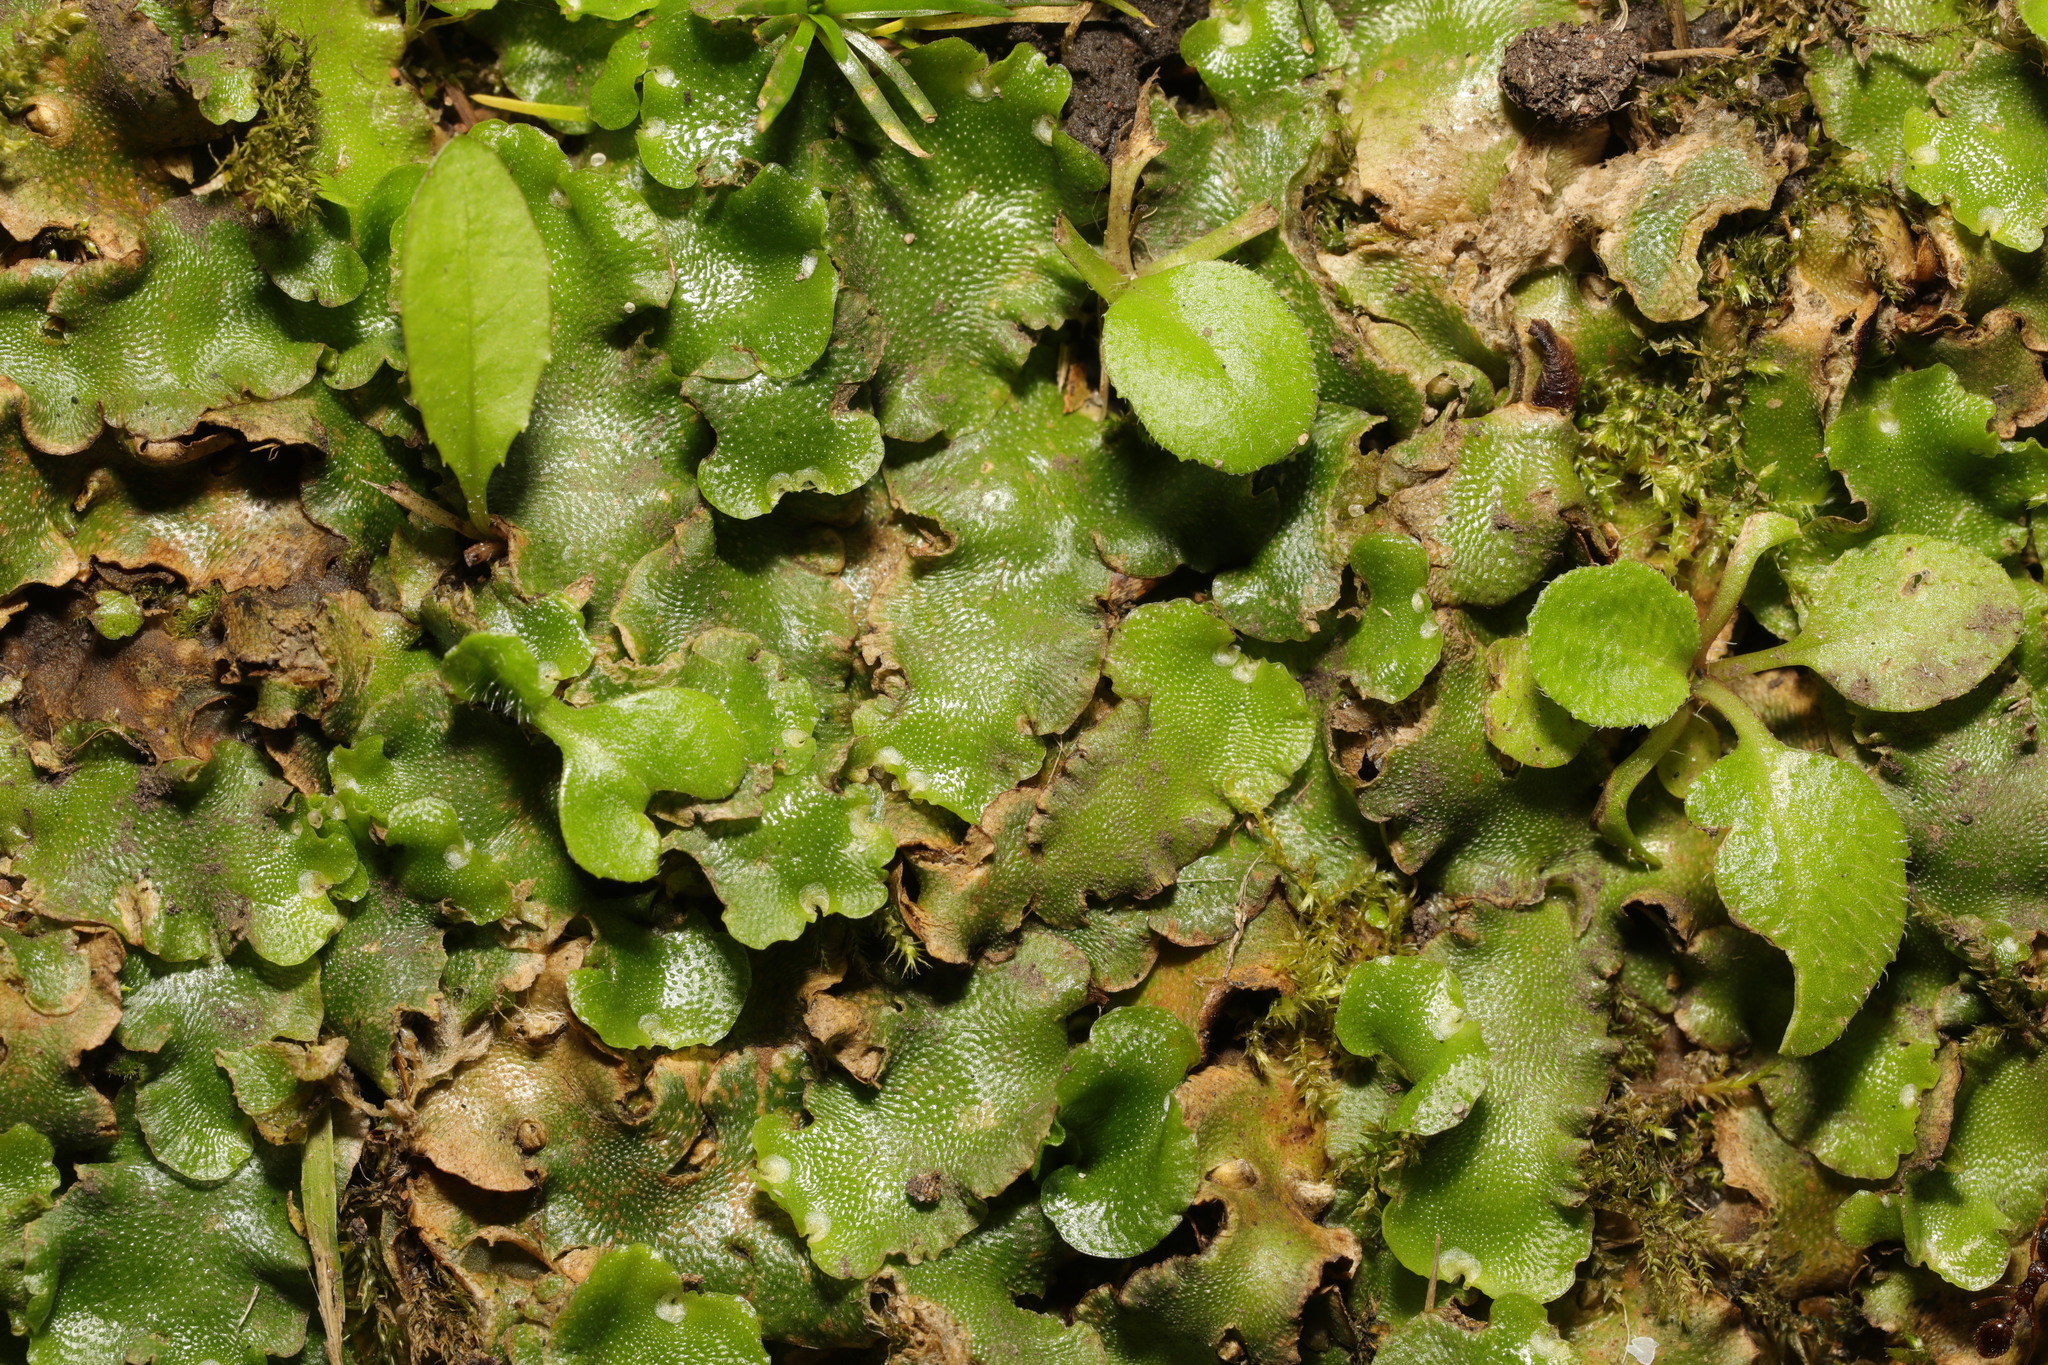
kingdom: Plantae
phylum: Marchantiophyta
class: Marchantiopsida
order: Lunulariales
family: Lunulariaceae
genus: Lunularia
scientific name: Lunularia cruciata
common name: Crescent-cup liverwort
